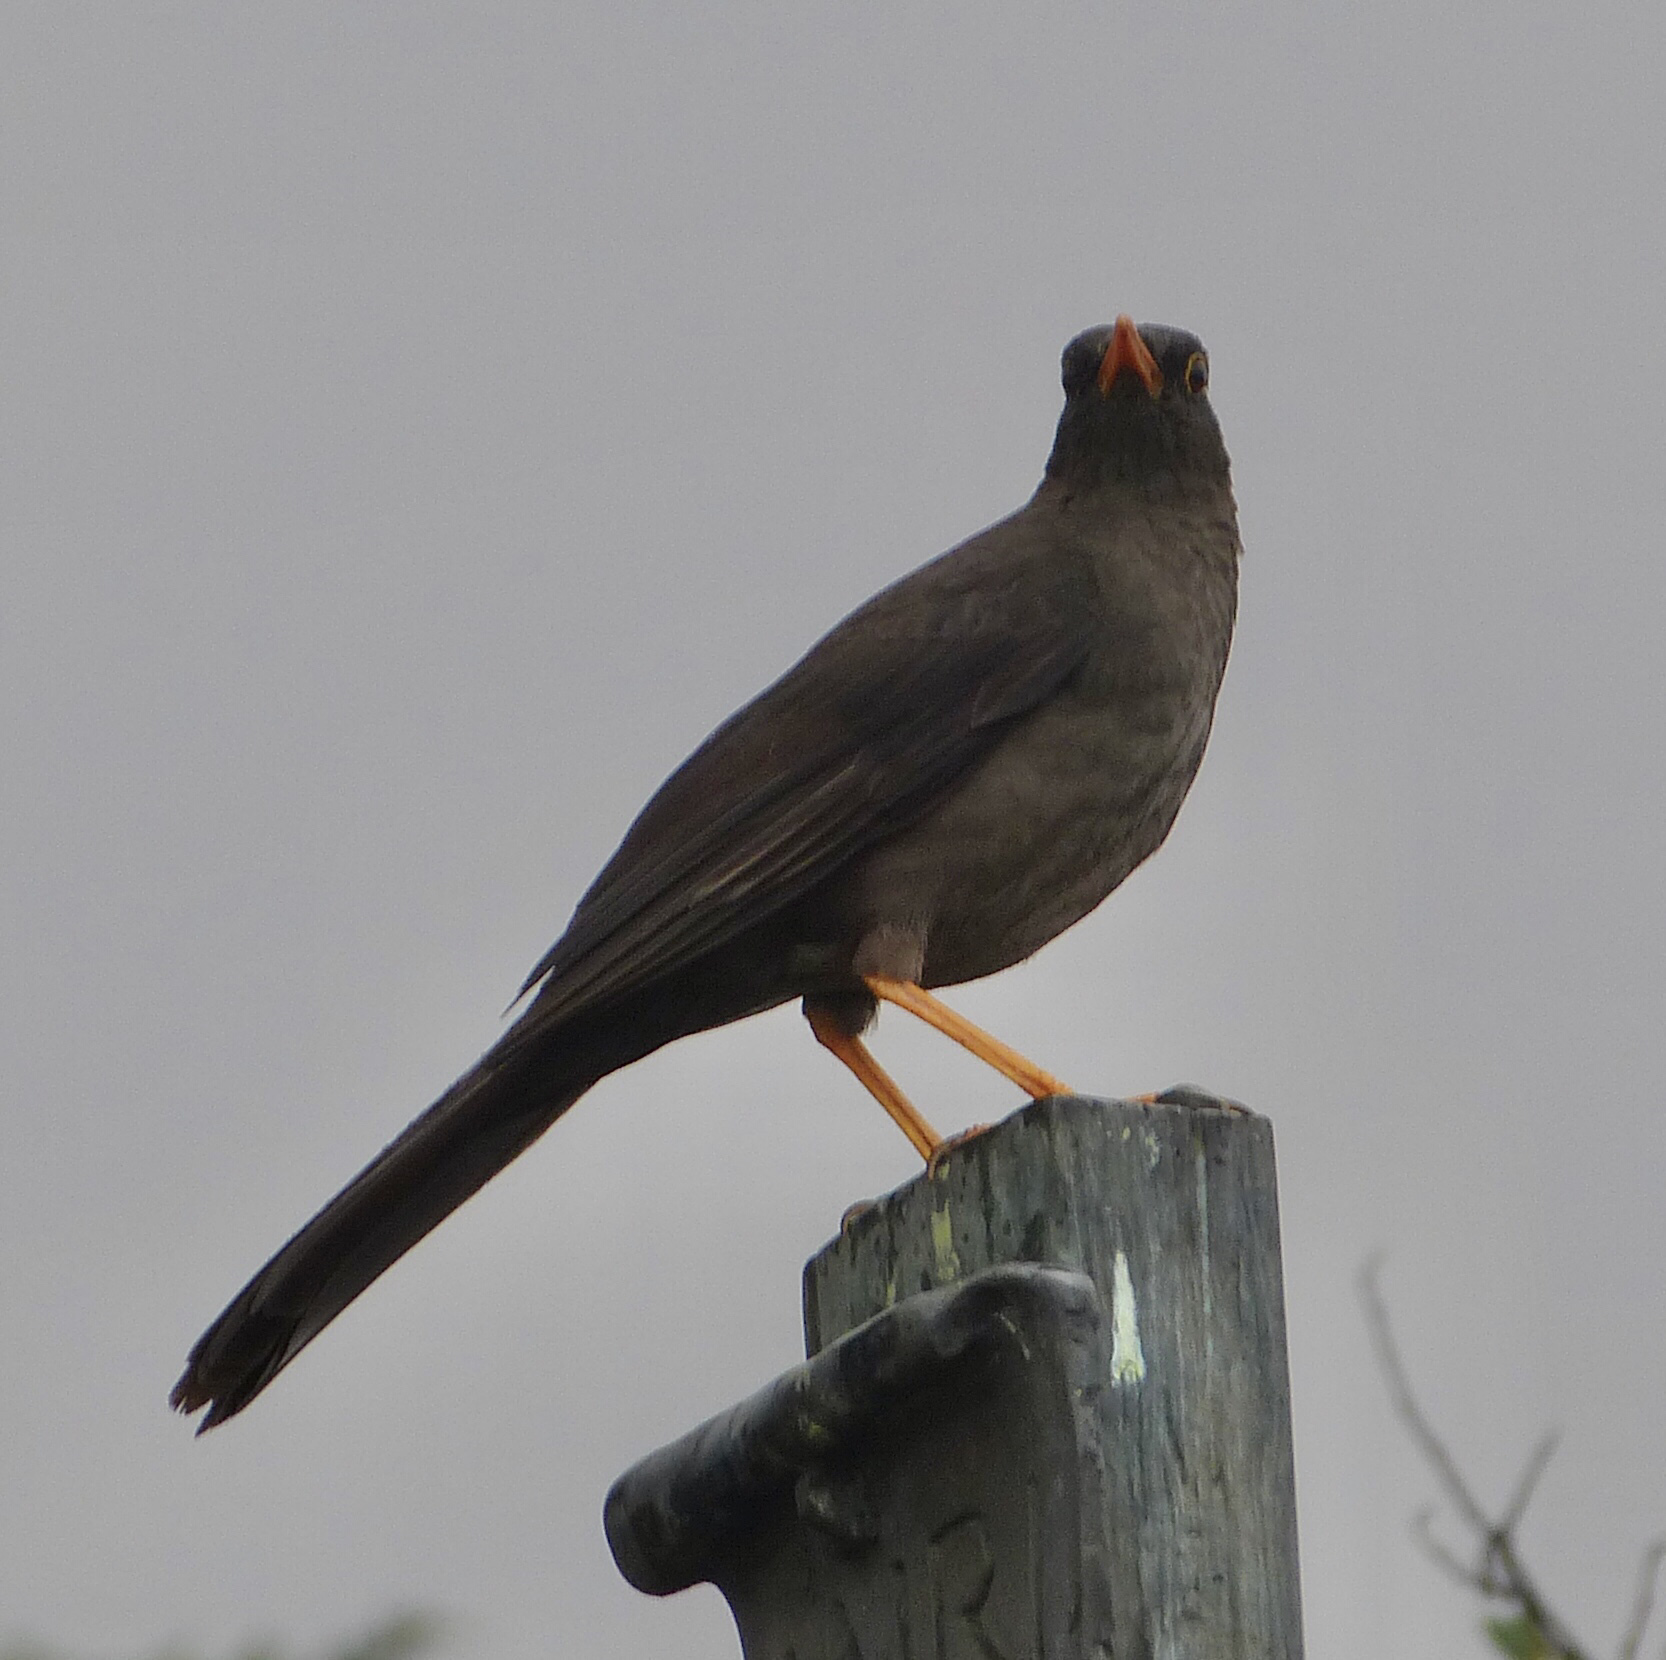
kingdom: Animalia
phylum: Chordata
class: Aves
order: Passeriformes
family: Turdidae
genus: Turdus
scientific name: Turdus fuscater
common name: Great thrush
